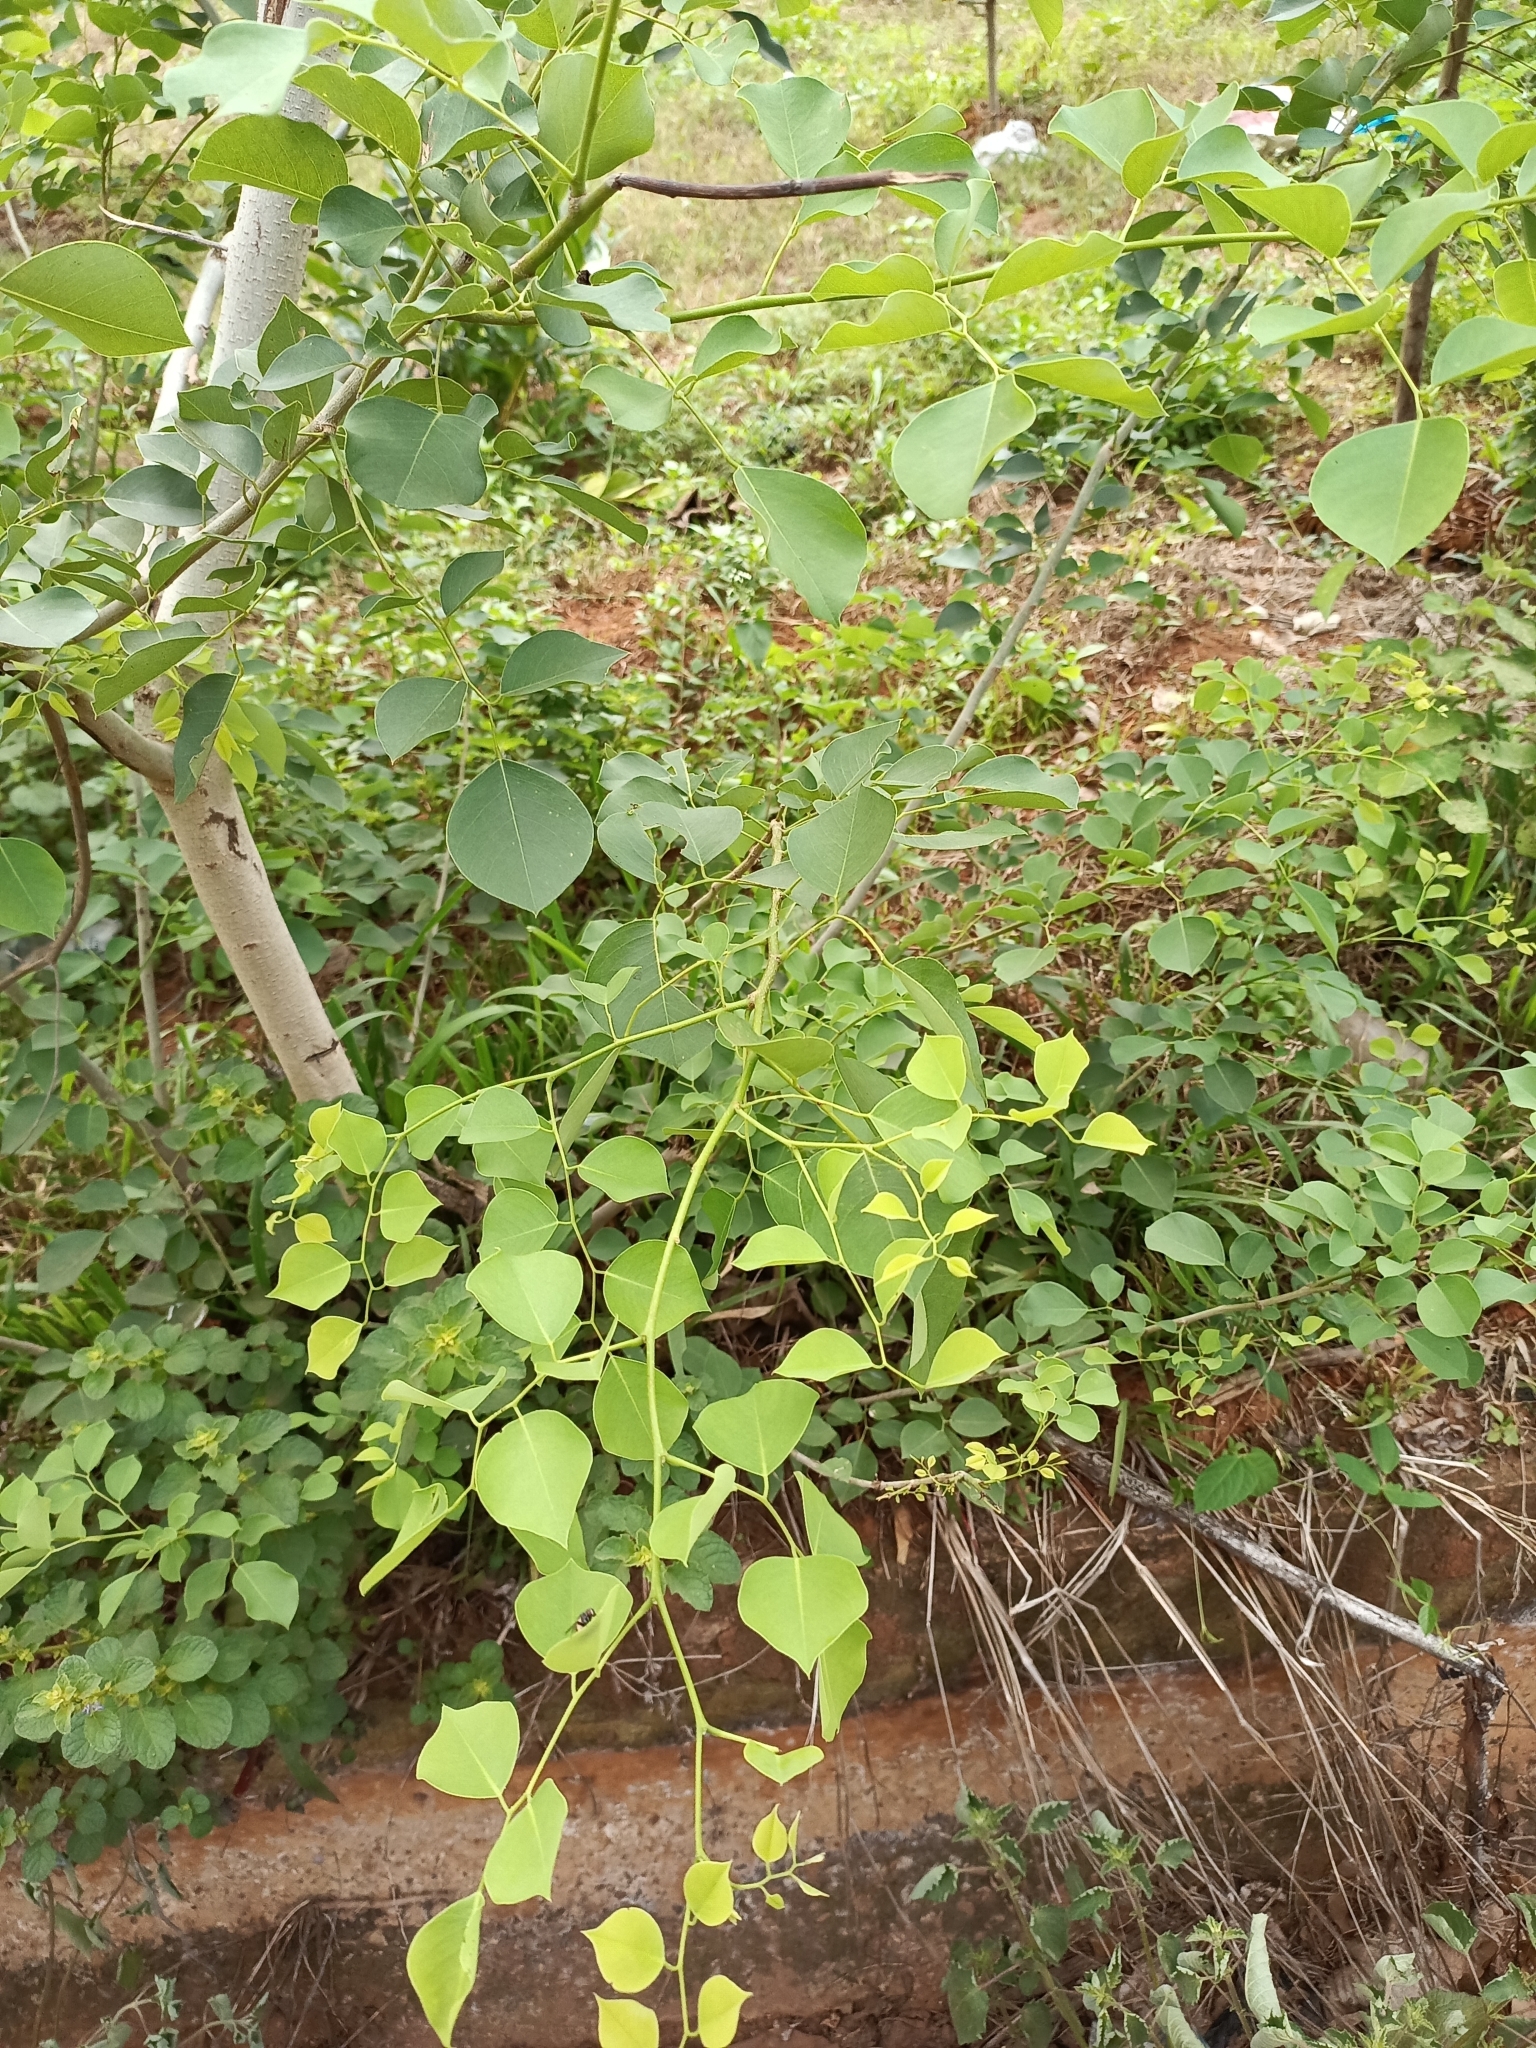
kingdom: Plantae
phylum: Tracheophyta
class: Magnoliopsida
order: Fabales
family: Fabaceae
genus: Dalbergia
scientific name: Dalbergia sissoo
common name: Indian rosewood
